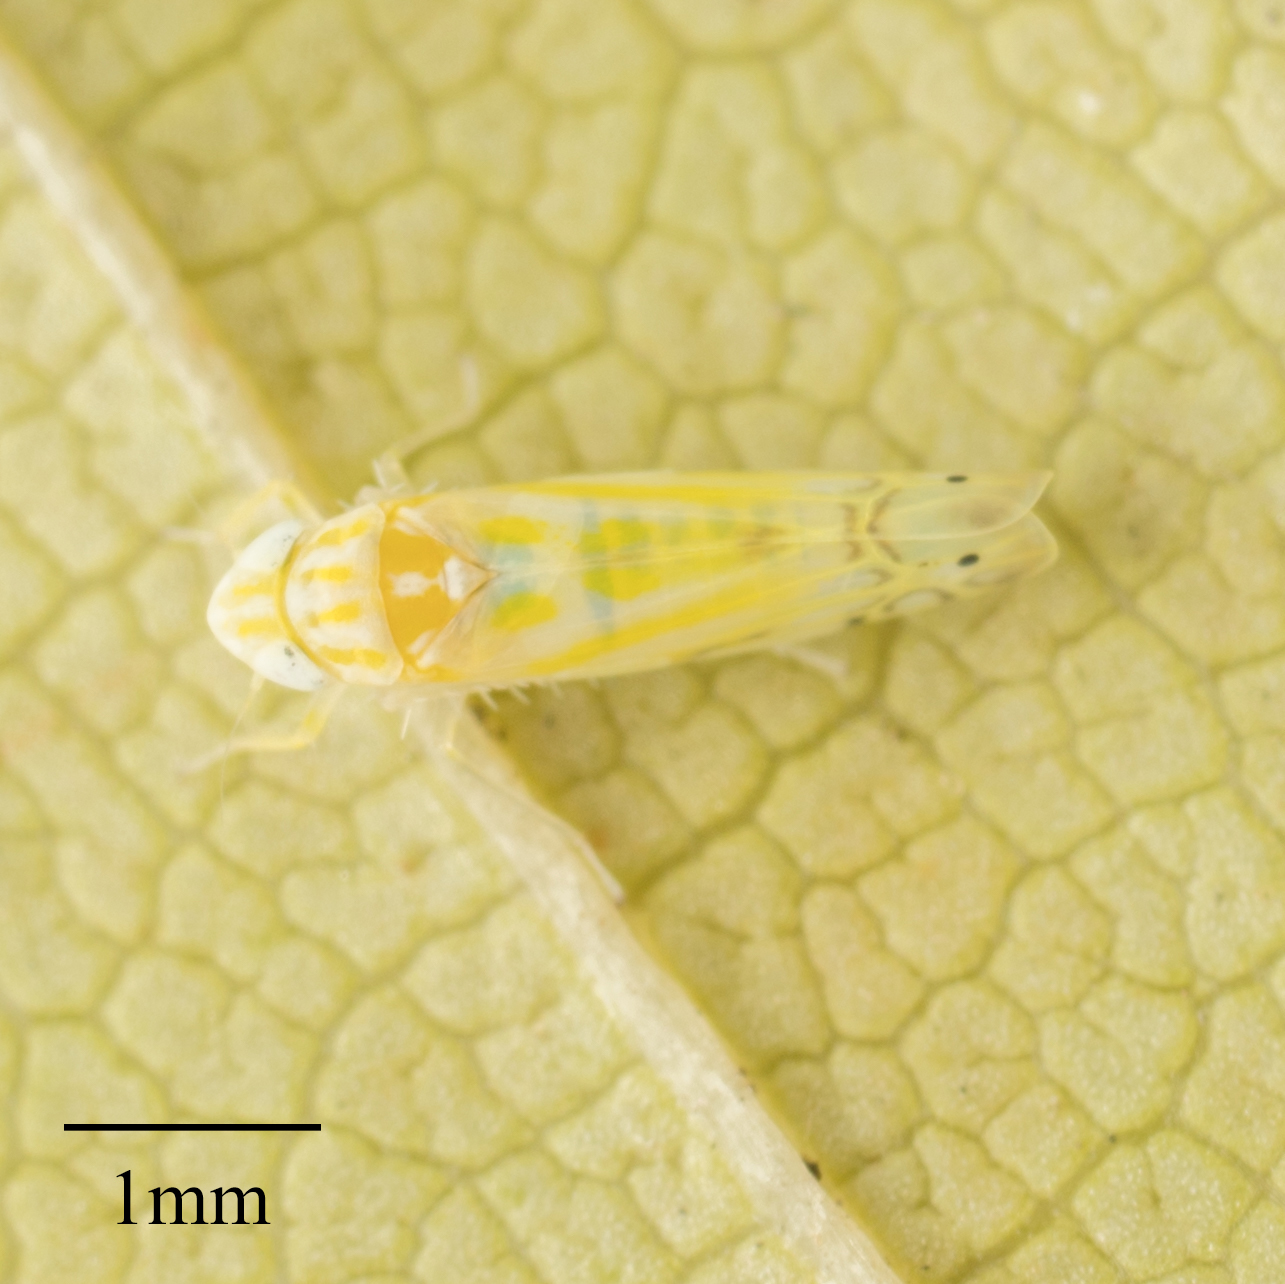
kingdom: Animalia
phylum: Arthropoda
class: Insecta
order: Hemiptera
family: Cicadellidae
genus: Alconeura
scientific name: Alconeura quadrimaculata
